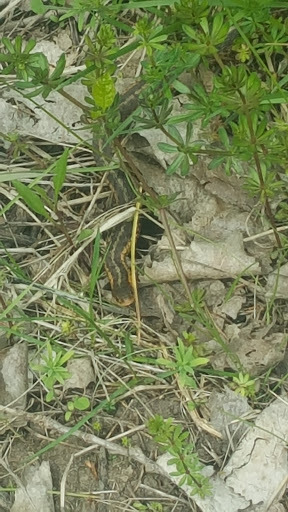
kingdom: Animalia
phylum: Chordata
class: Squamata
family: Colubridae
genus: Thamnophis
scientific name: Thamnophis sirtalis
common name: Common garter snake
